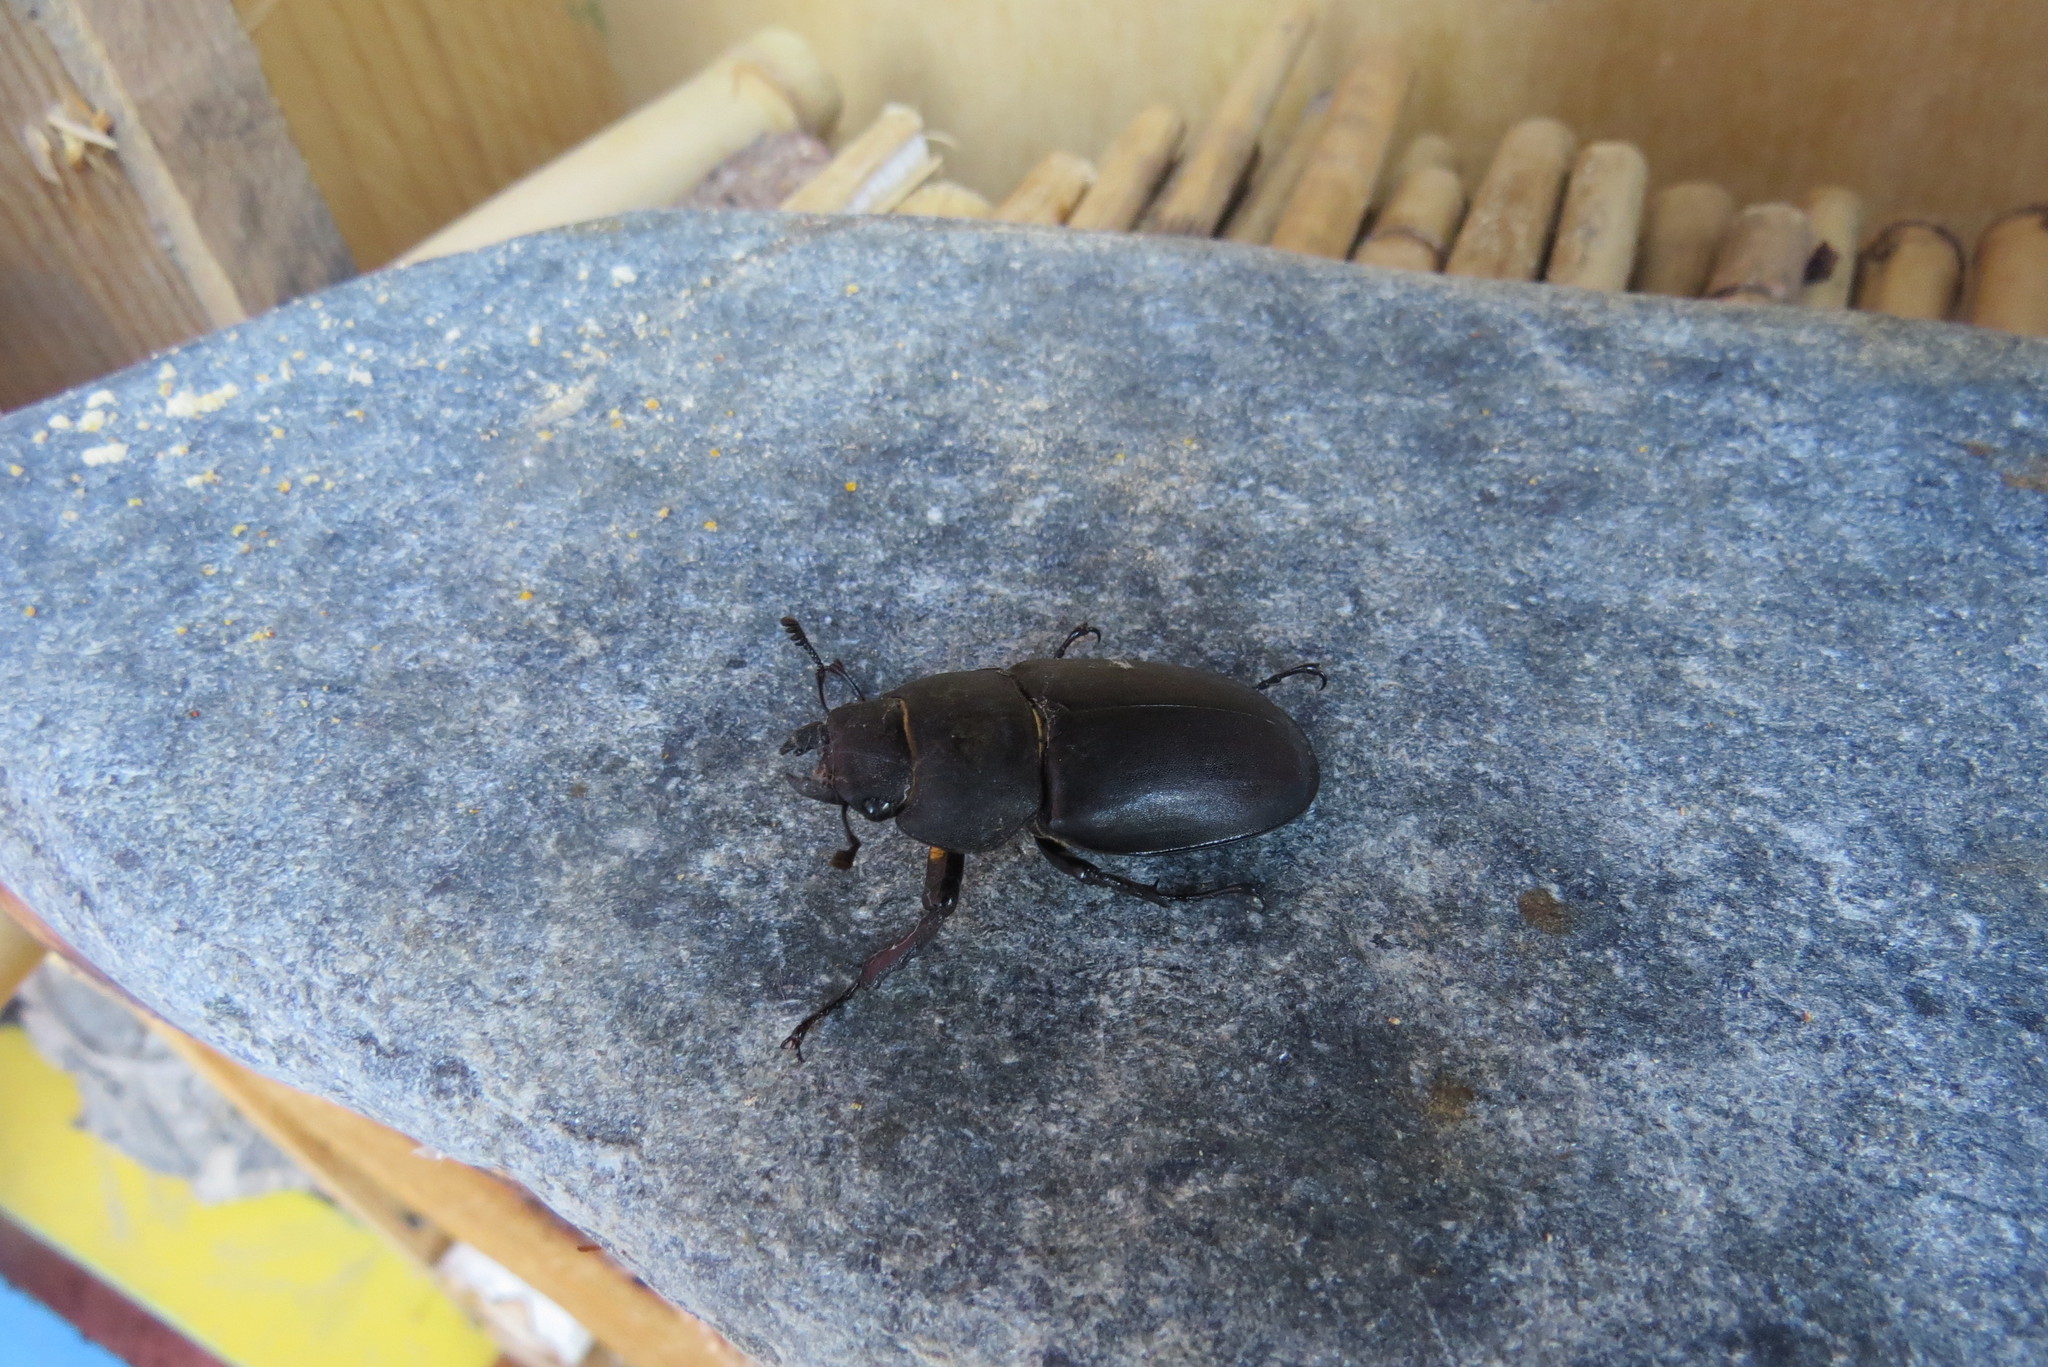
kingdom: Animalia
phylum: Arthropoda
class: Insecta
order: Coleoptera
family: Lucanidae
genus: Lucanus
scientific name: Lucanus cervus
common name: Stag beetle
